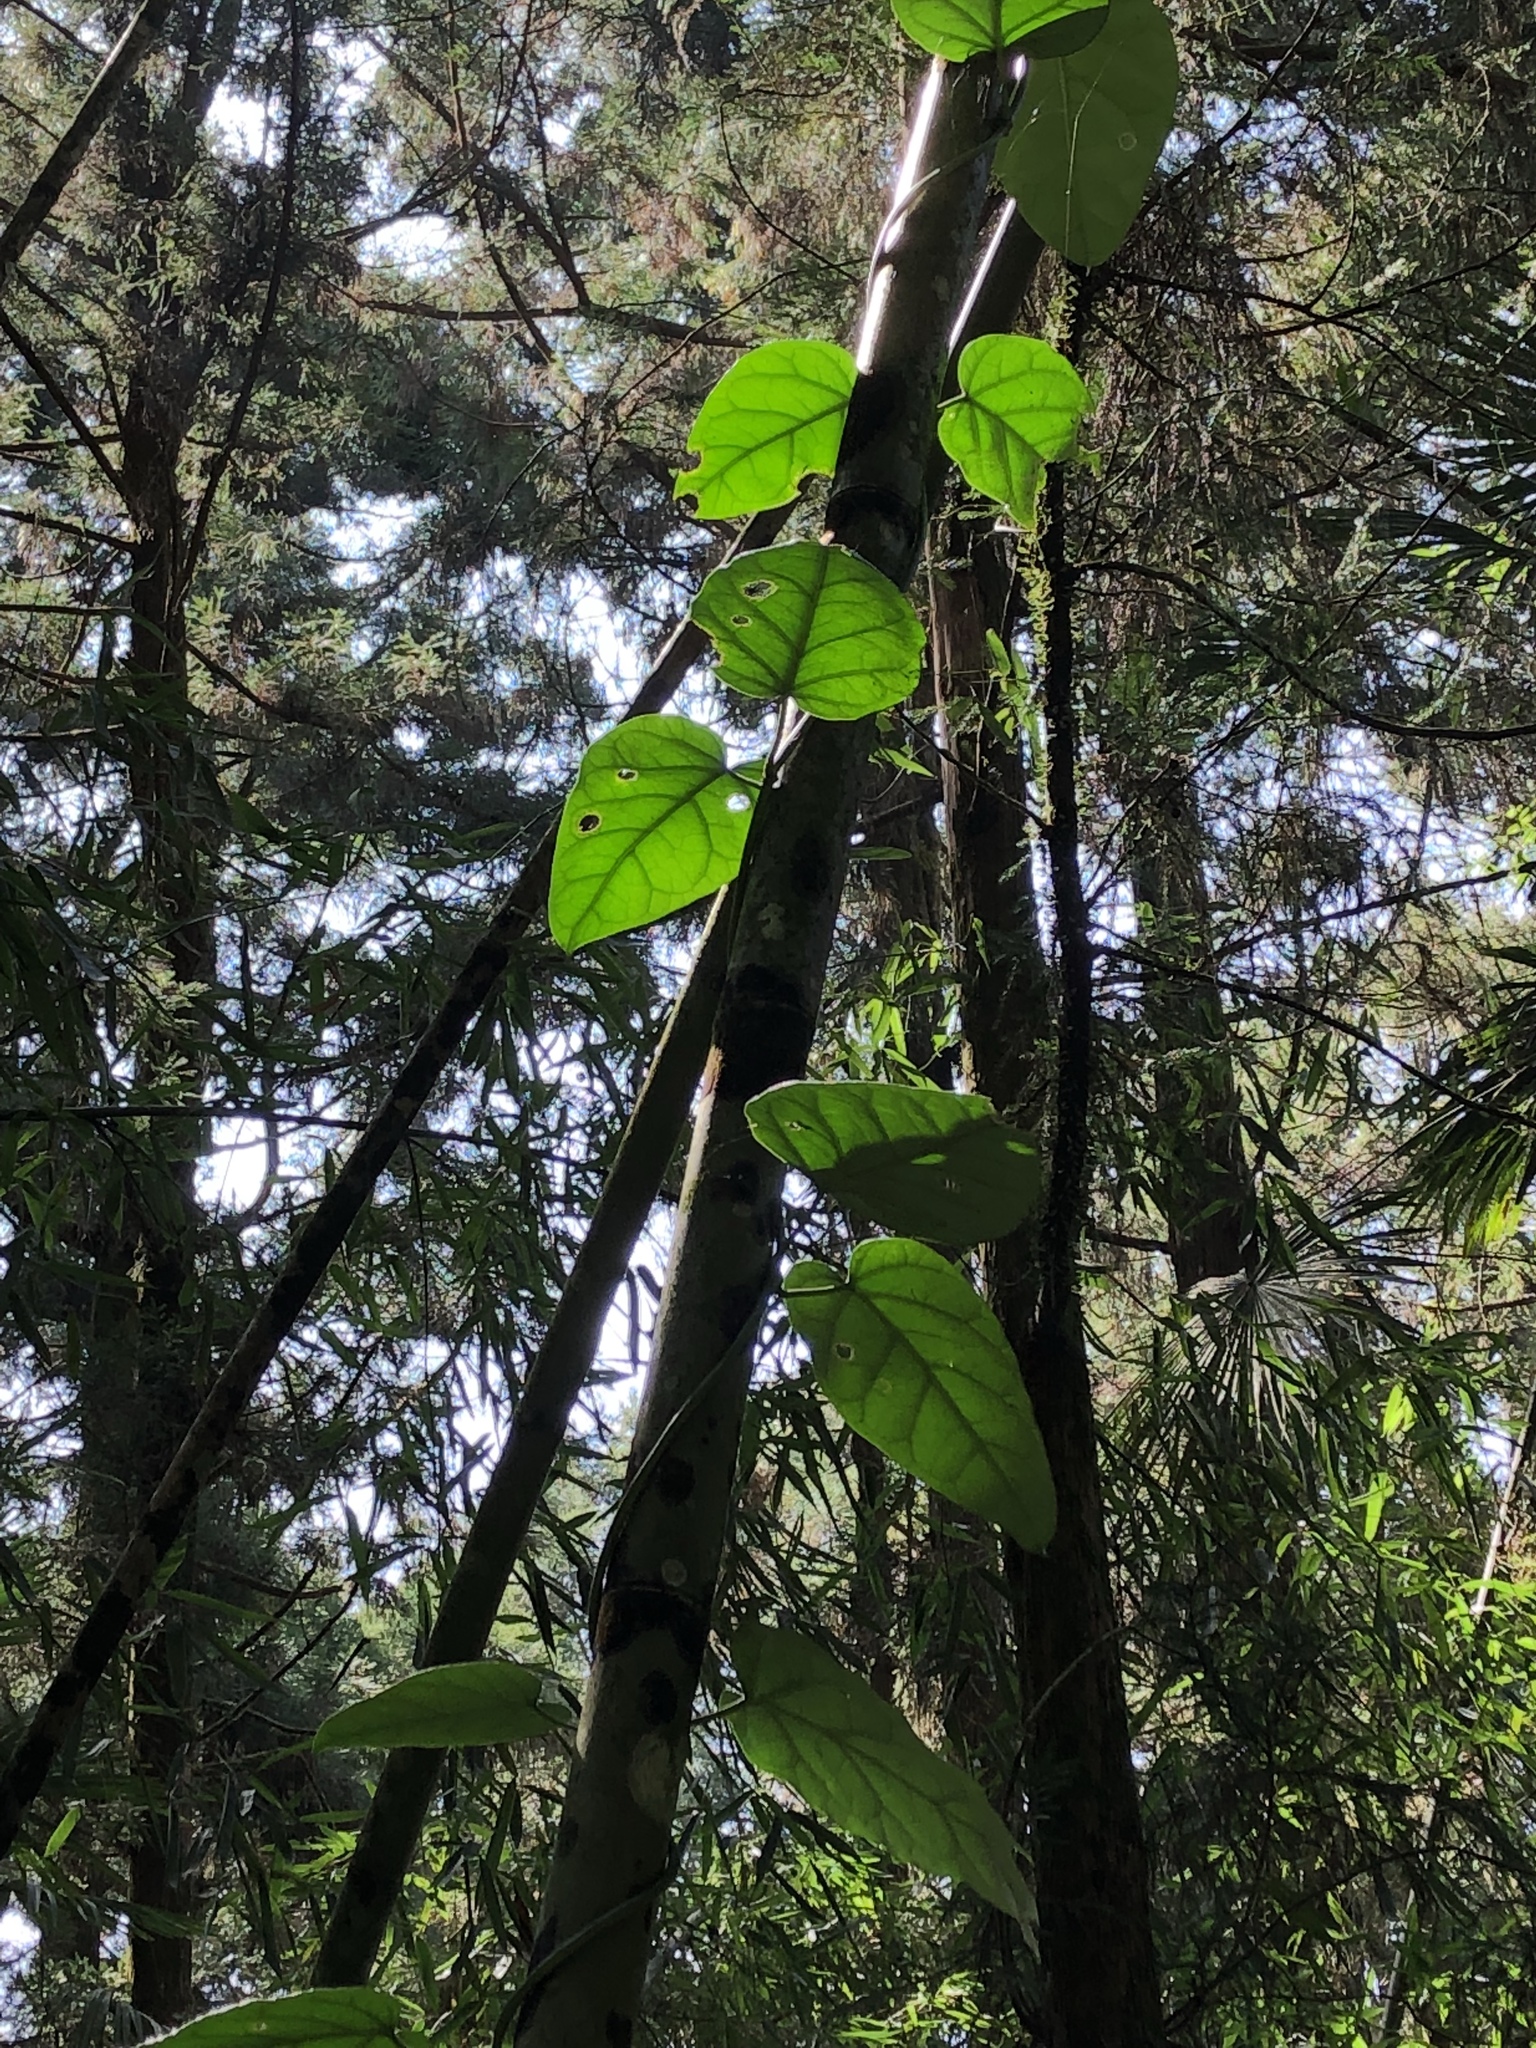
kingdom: Plantae
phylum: Tracheophyta
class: Magnoliopsida
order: Gentianales
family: Apocynaceae
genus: Sinomarsdenia
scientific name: Sinomarsdenia formosana
